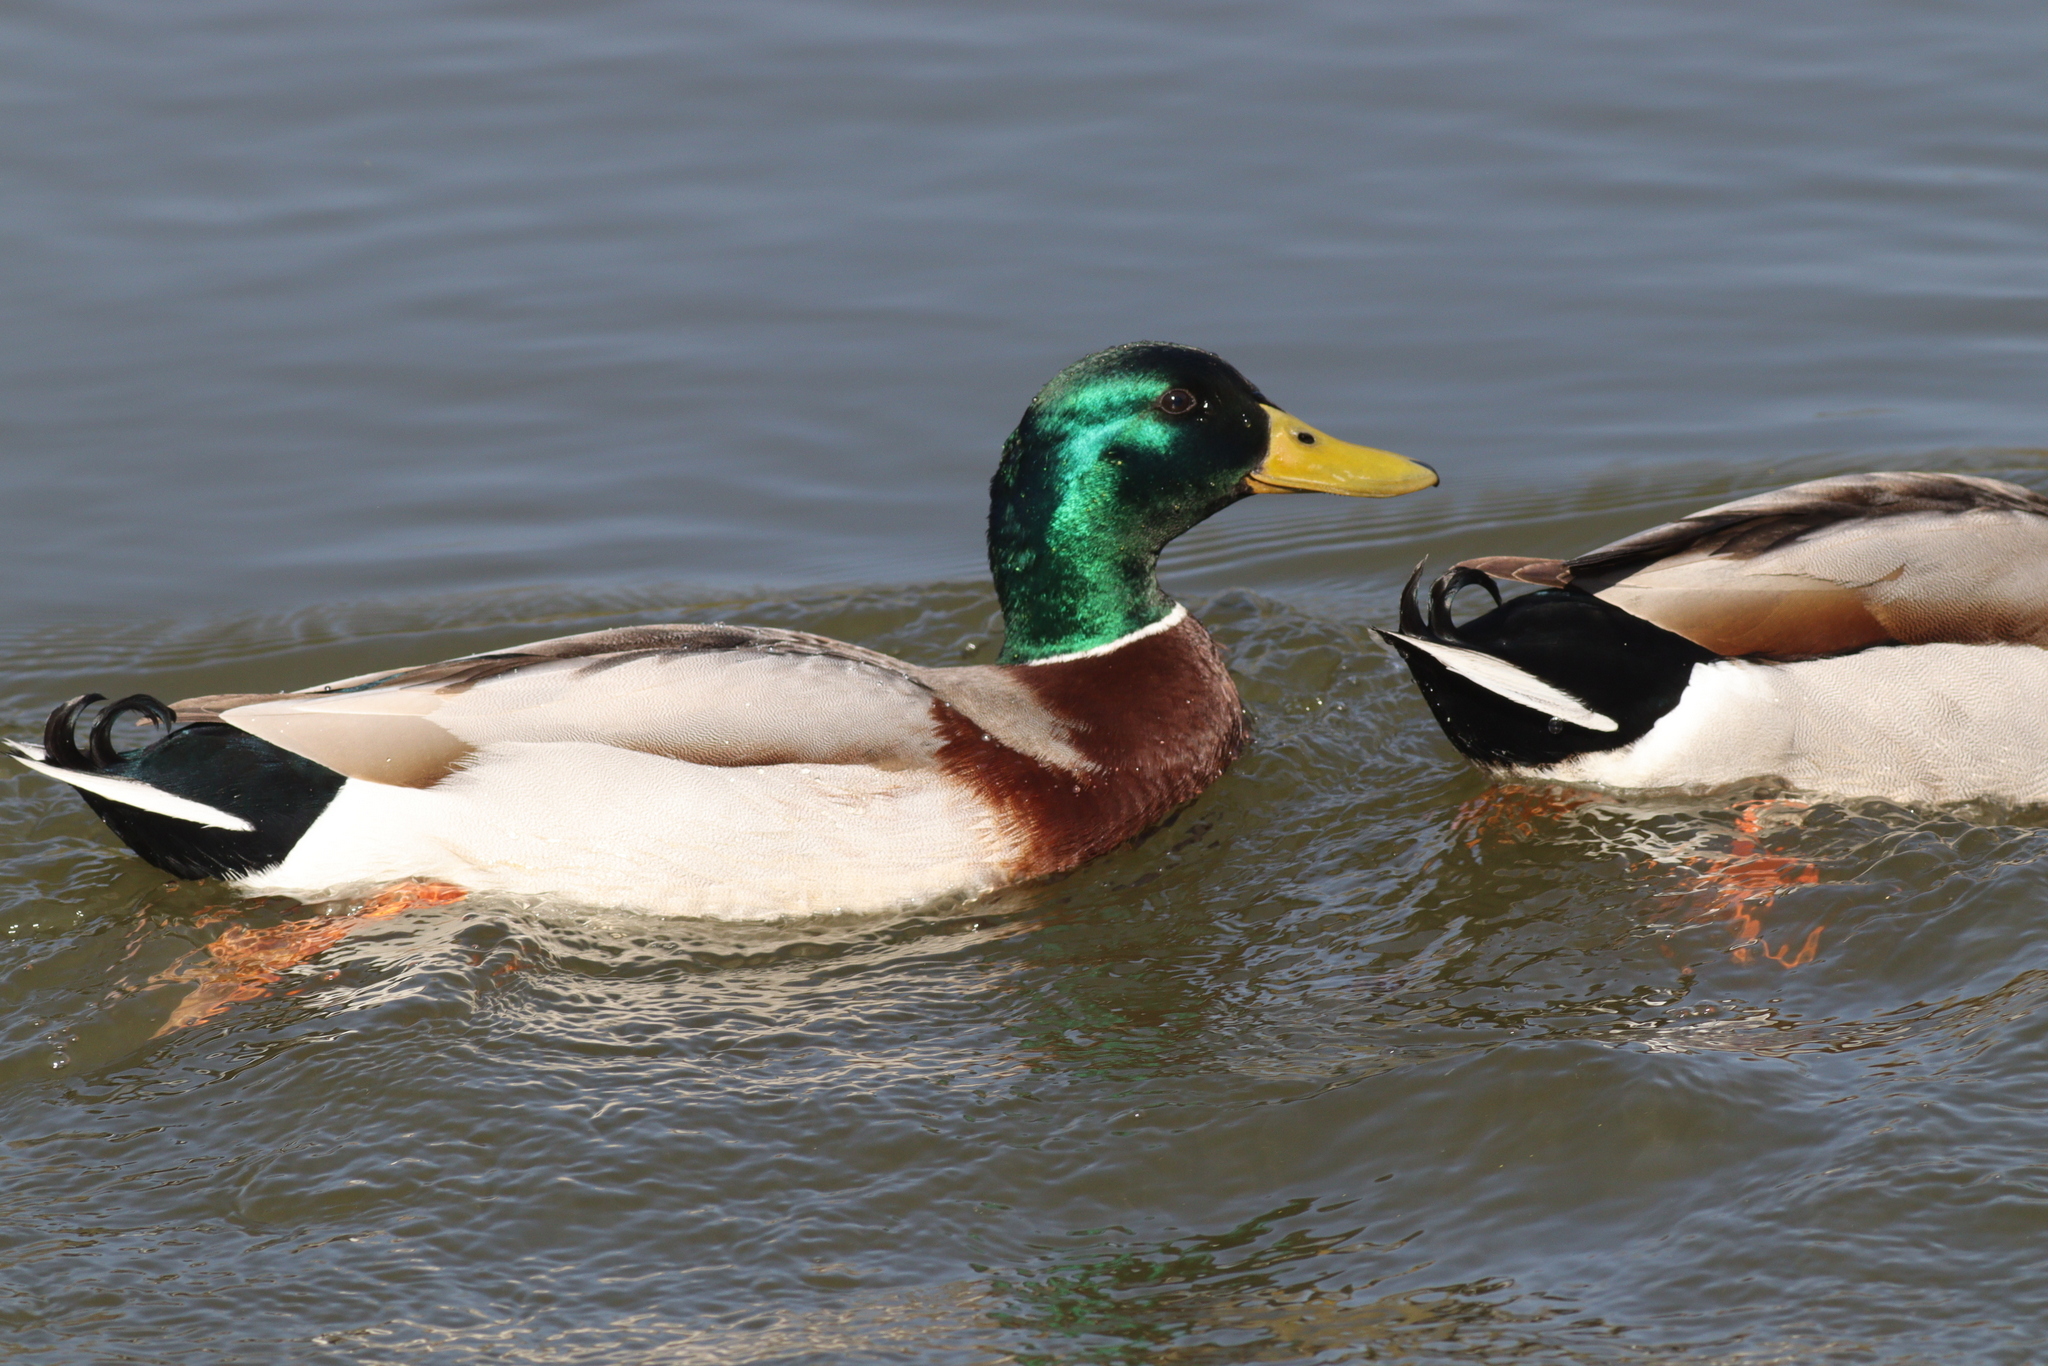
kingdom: Animalia
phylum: Chordata
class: Aves
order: Anseriformes
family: Anatidae
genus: Anas
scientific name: Anas platyrhynchos
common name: Mallard
